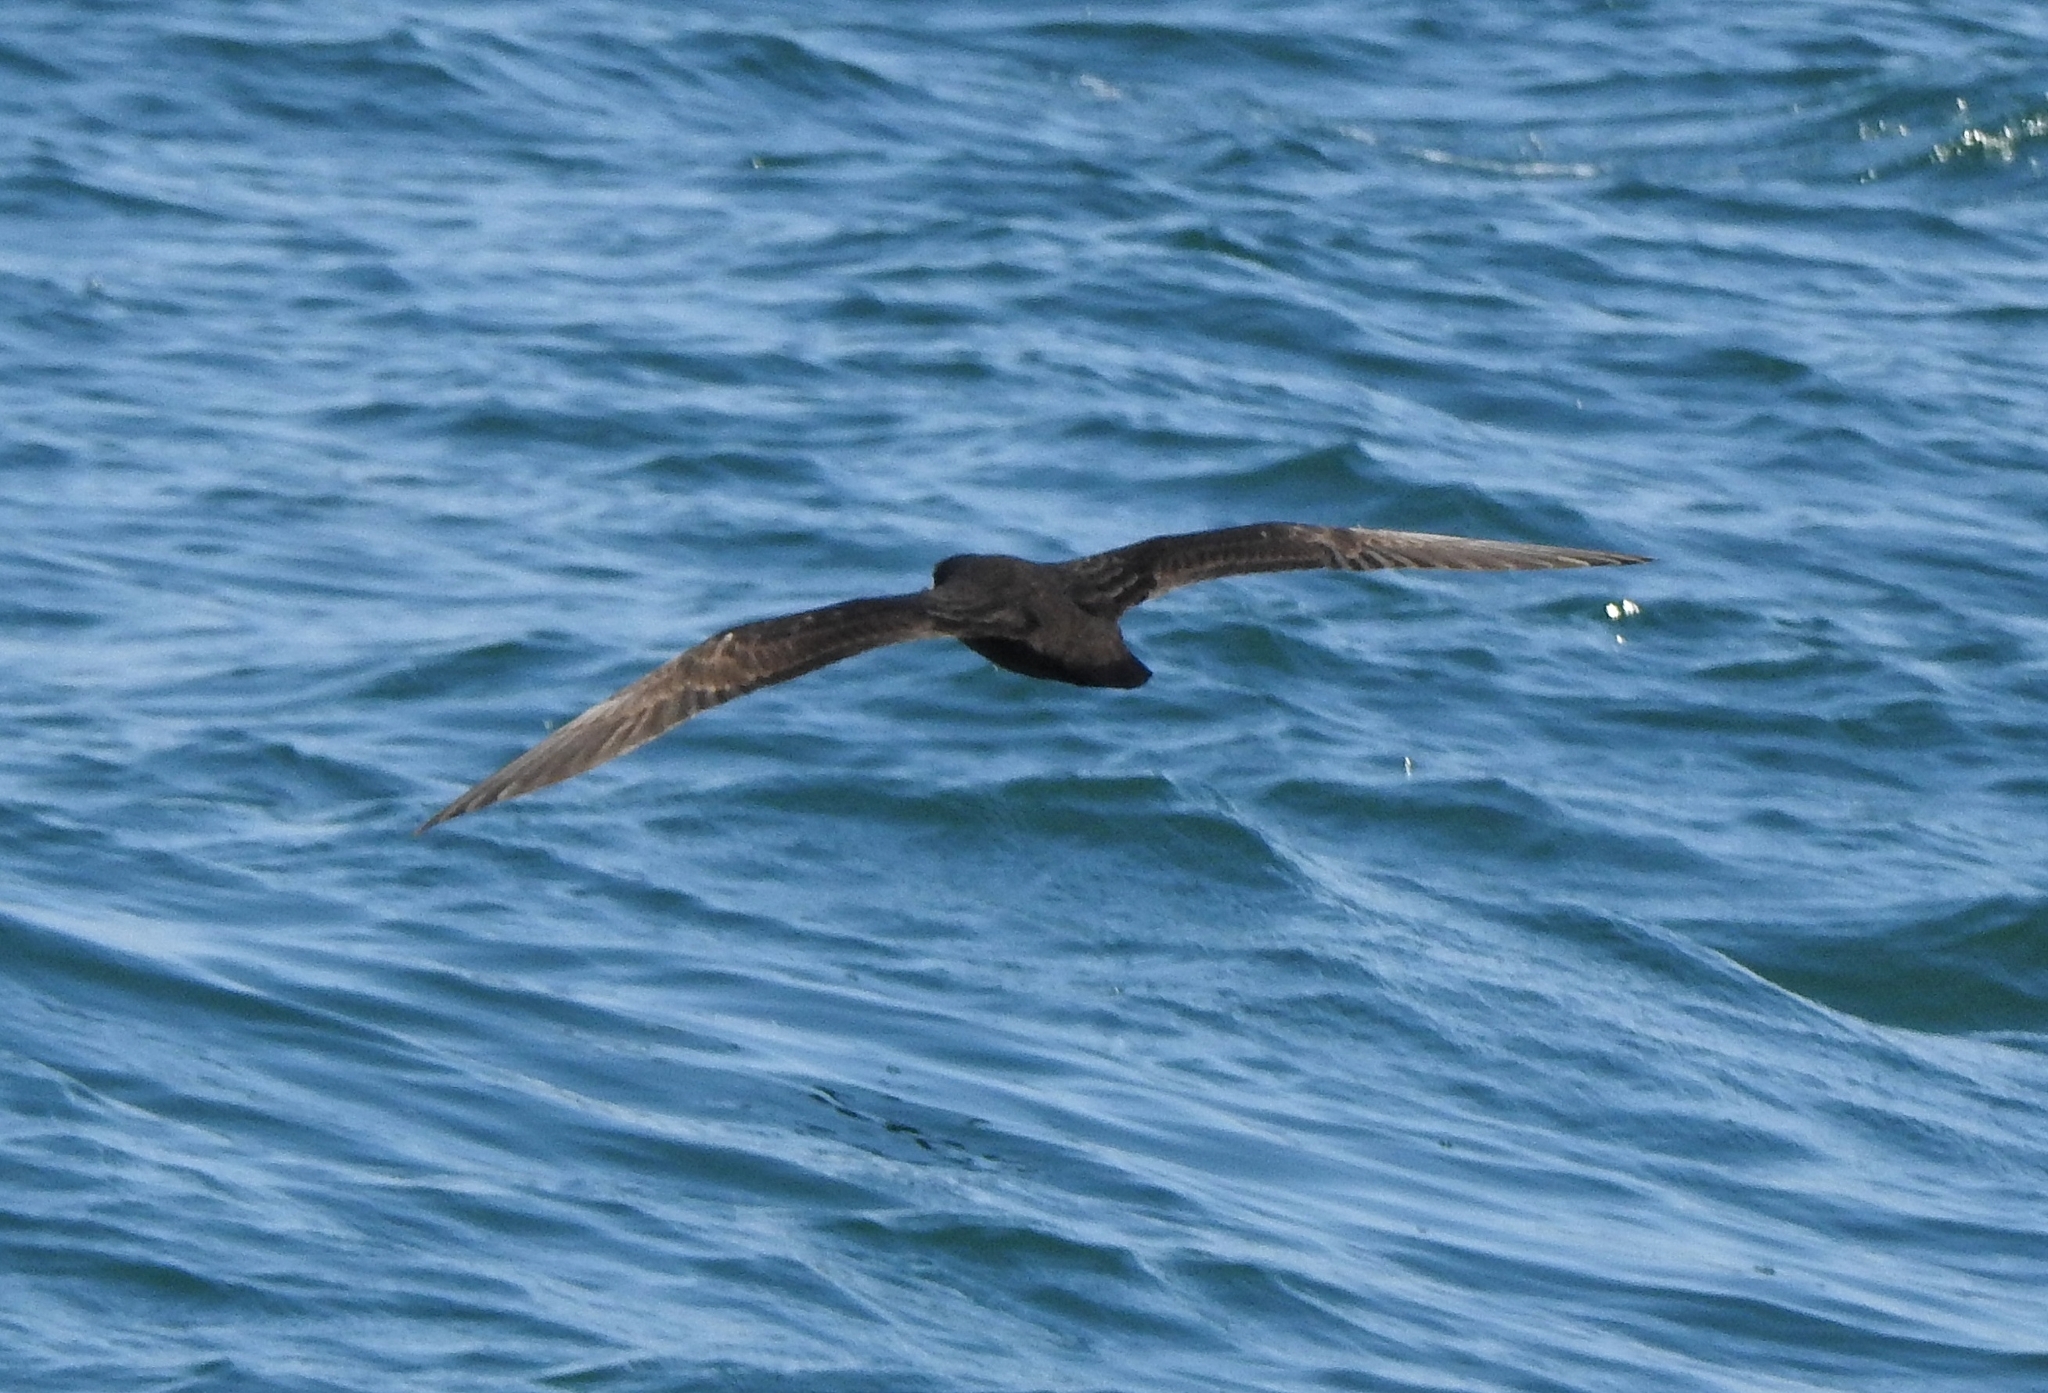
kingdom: Animalia
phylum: Chordata
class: Aves
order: Procellariiformes
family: Procellariidae
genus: Puffinus
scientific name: Puffinus carneipes
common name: Flesh-footed shearwater
